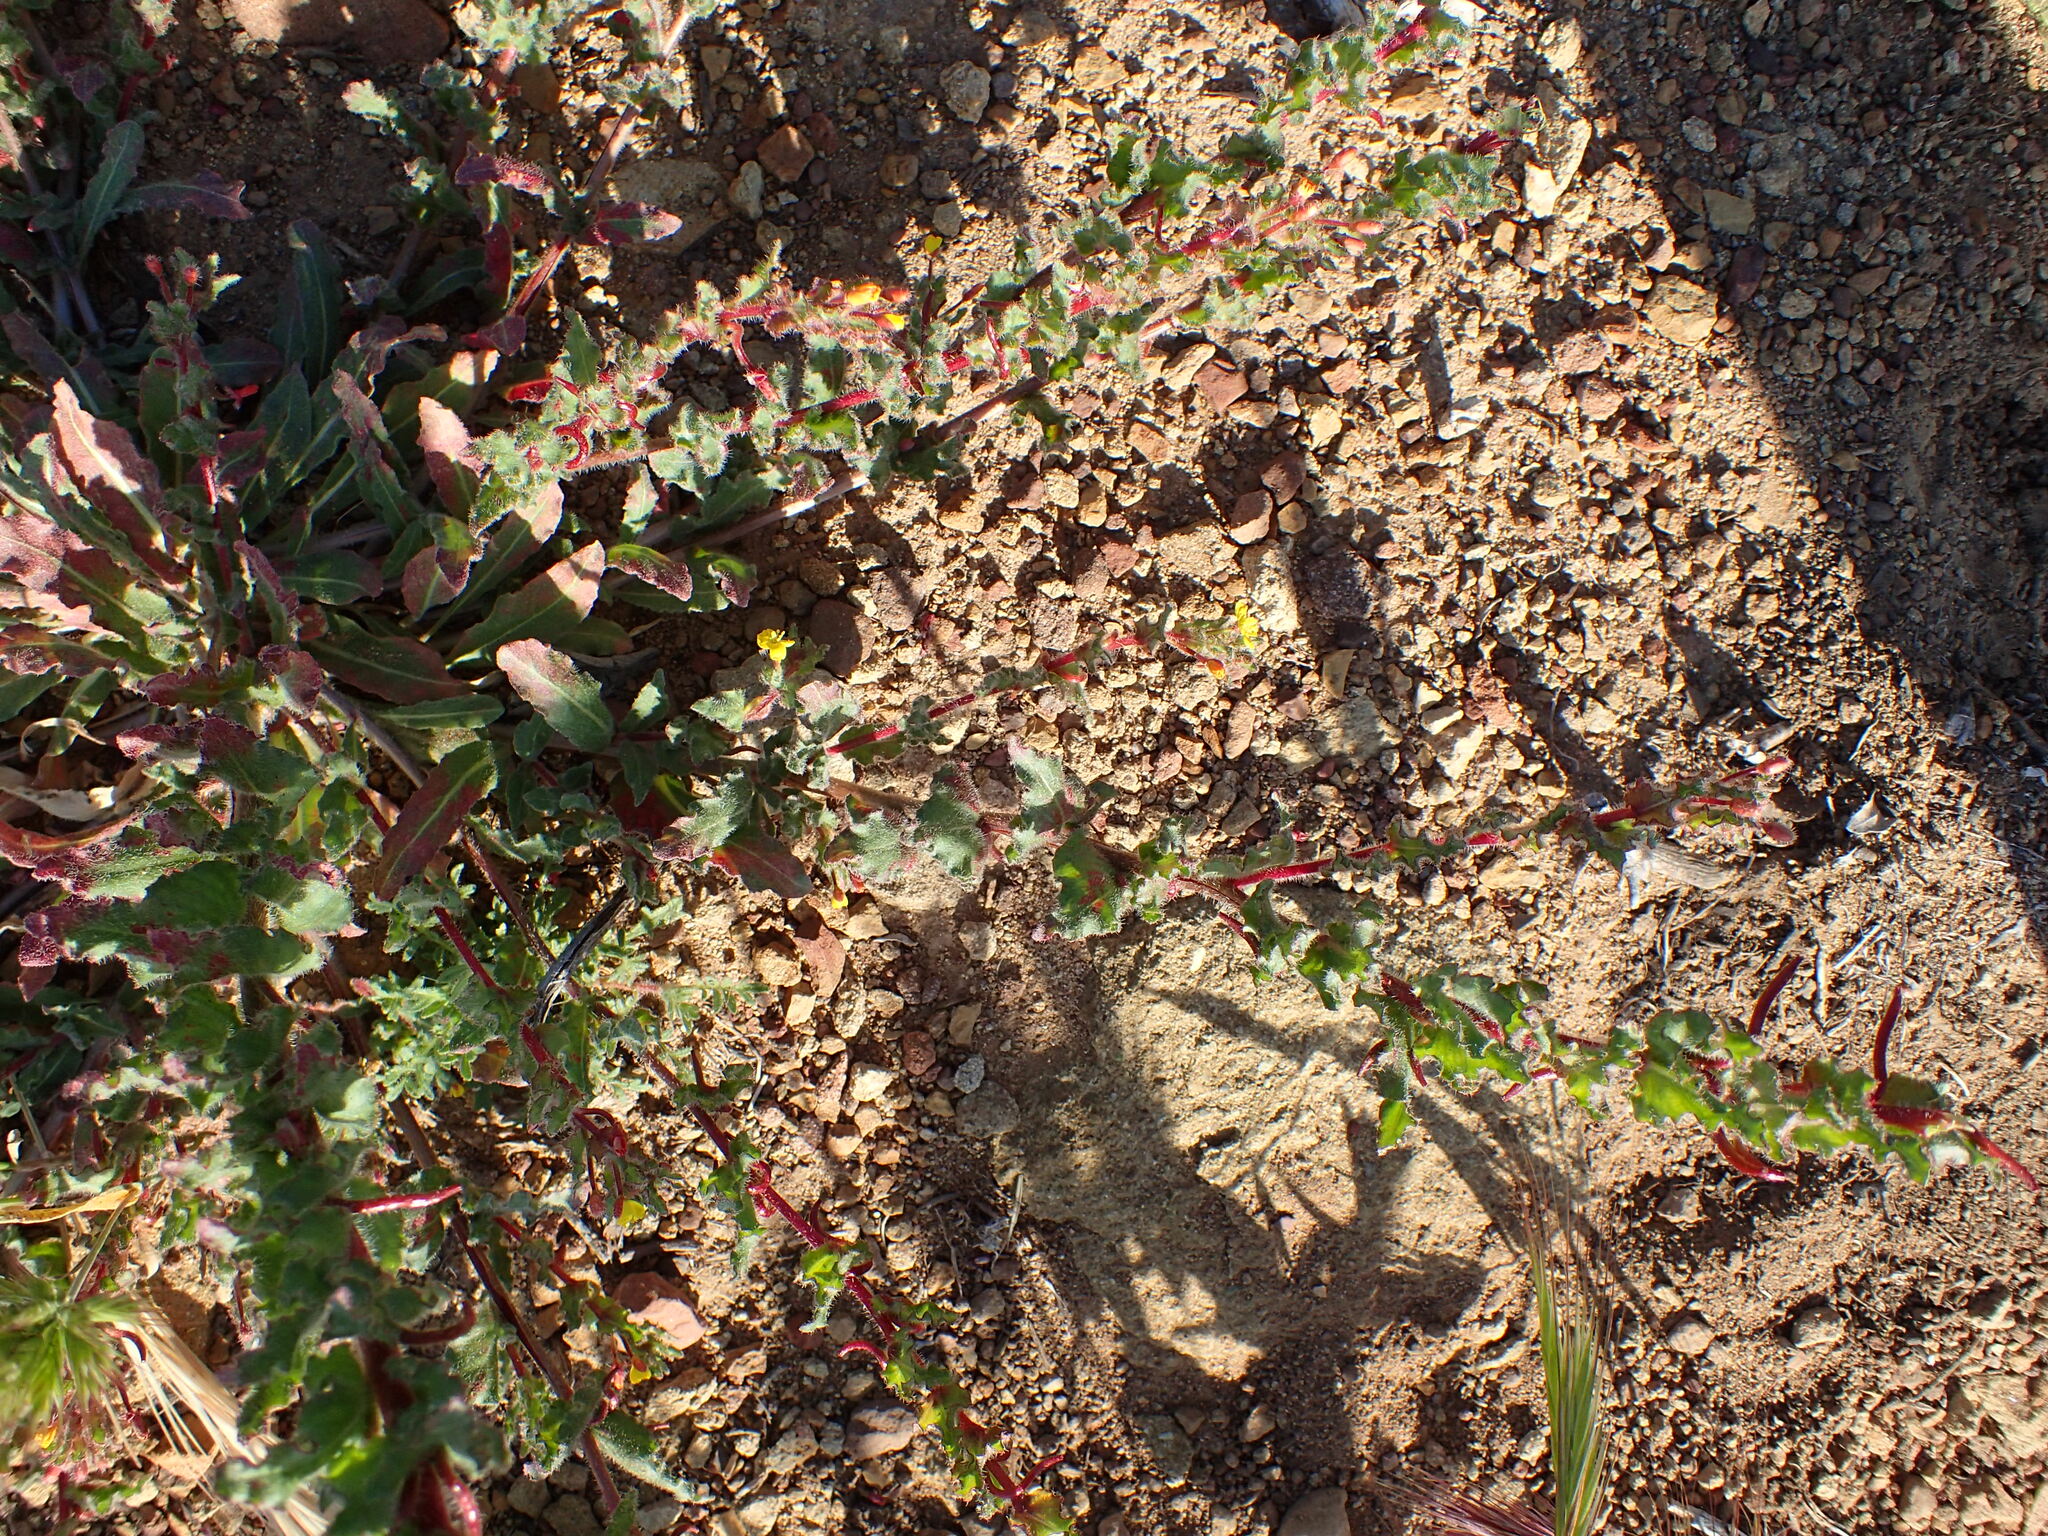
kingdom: Plantae
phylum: Tracheophyta
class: Magnoliopsida
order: Myrtales
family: Onagraceae
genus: Camissoniopsis
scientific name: Camissoniopsis hirtella
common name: Santa cruz island suncup
